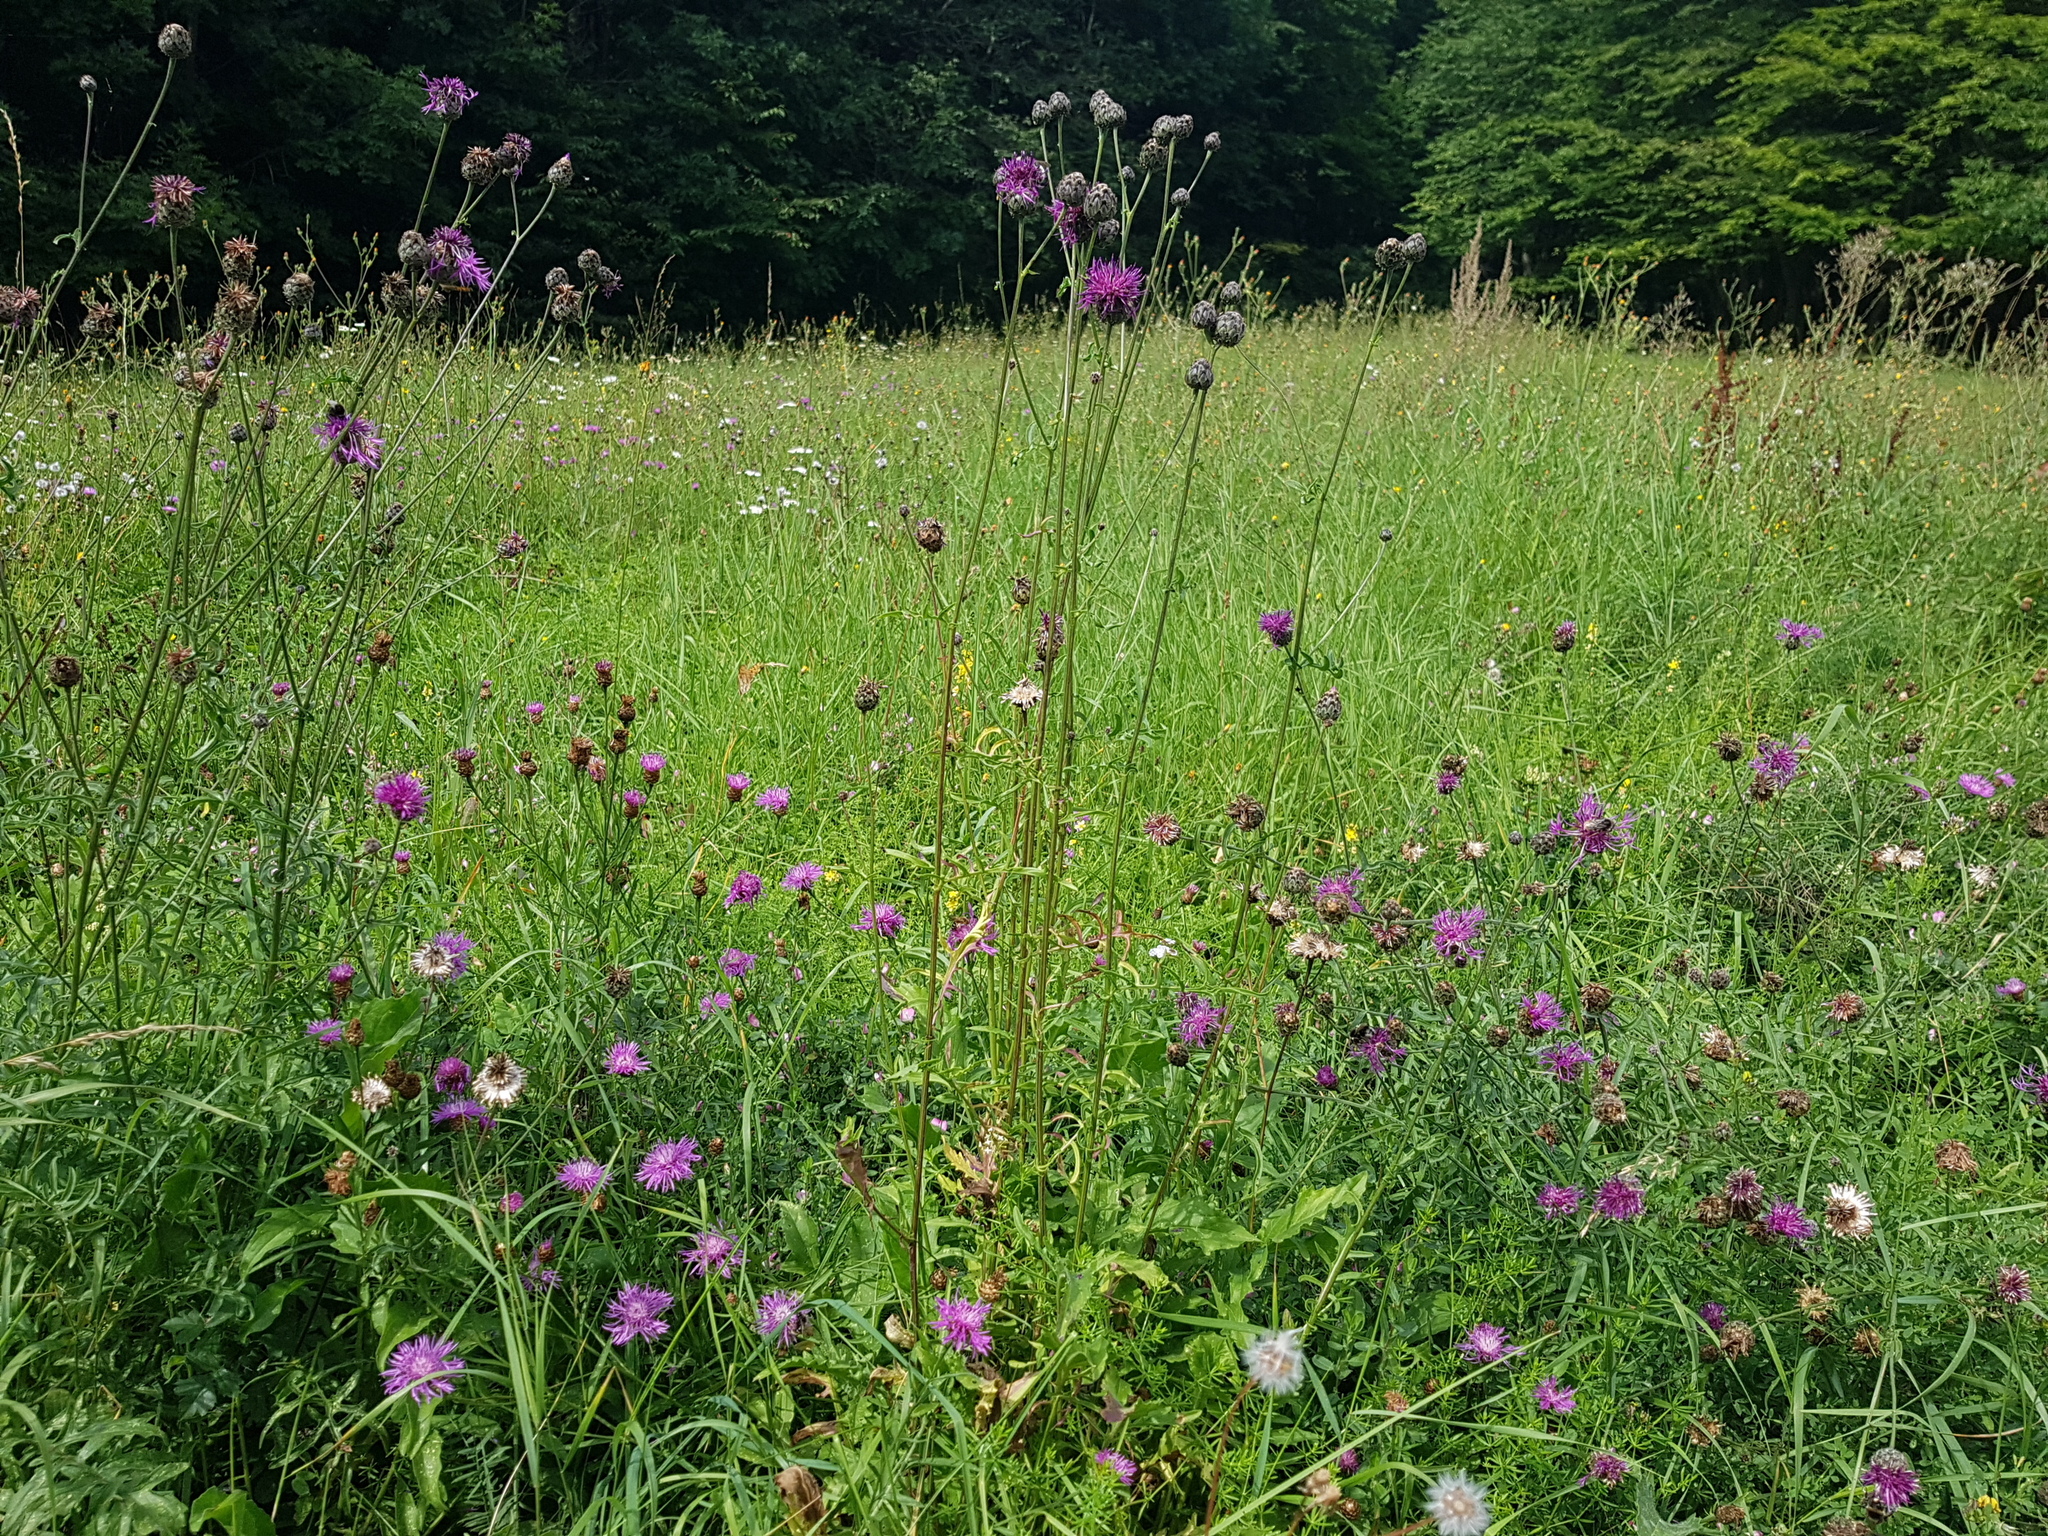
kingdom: Plantae
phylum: Tracheophyta
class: Magnoliopsida
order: Asterales
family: Asteraceae
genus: Centaurea
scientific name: Centaurea scabiosa
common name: Greater knapweed
